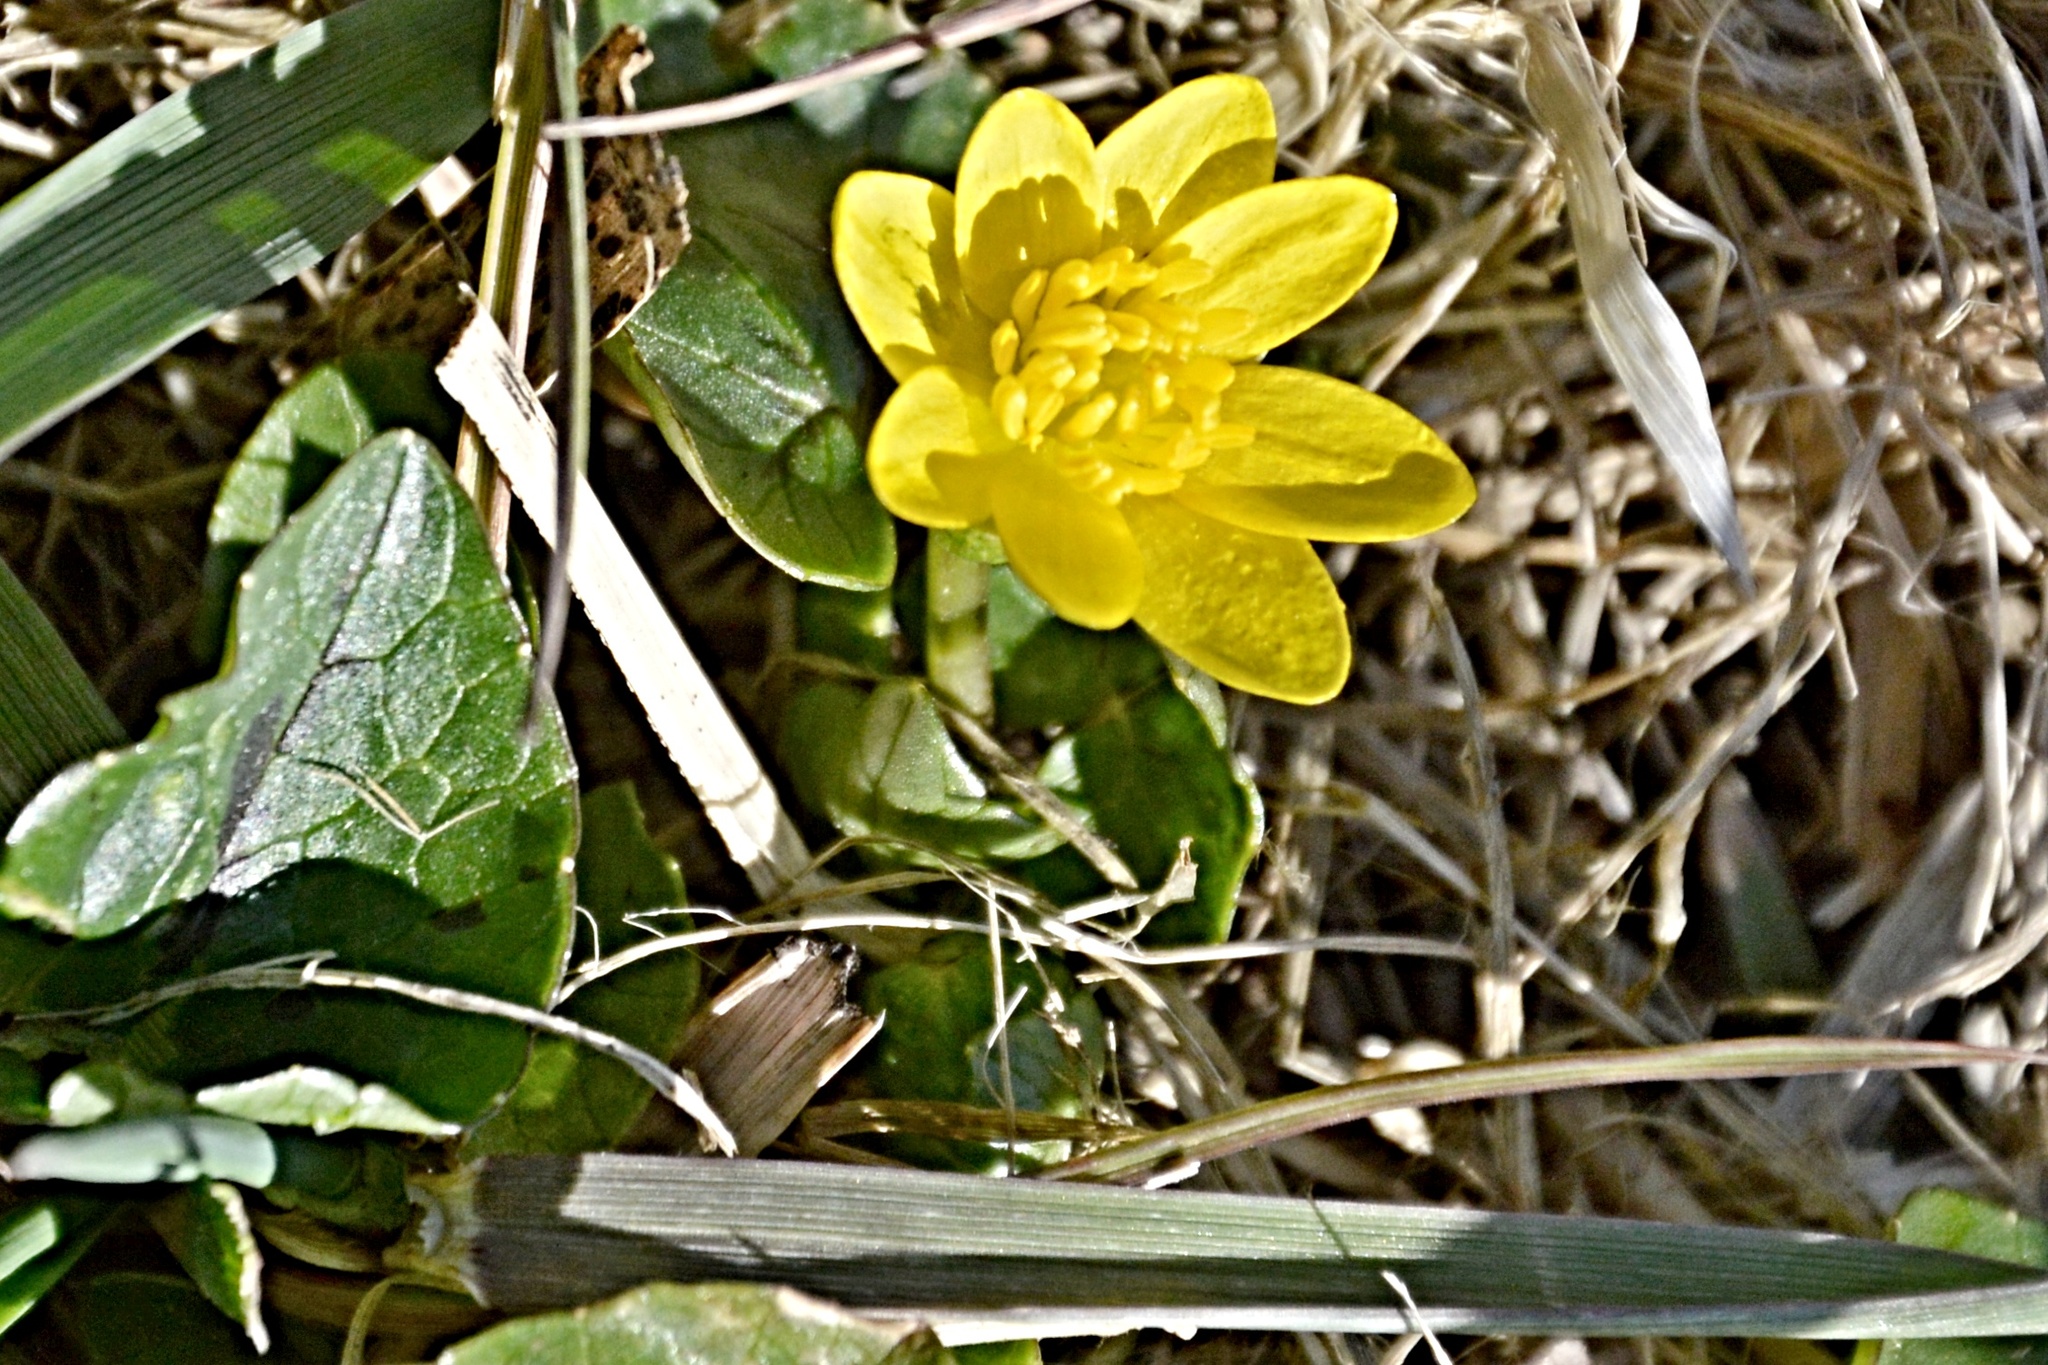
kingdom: Plantae
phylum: Tracheophyta
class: Magnoliopsida
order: Ranunculales
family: Ranunculaceae
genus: Ficaria
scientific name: Ficaria verna
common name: Lesser celandine
